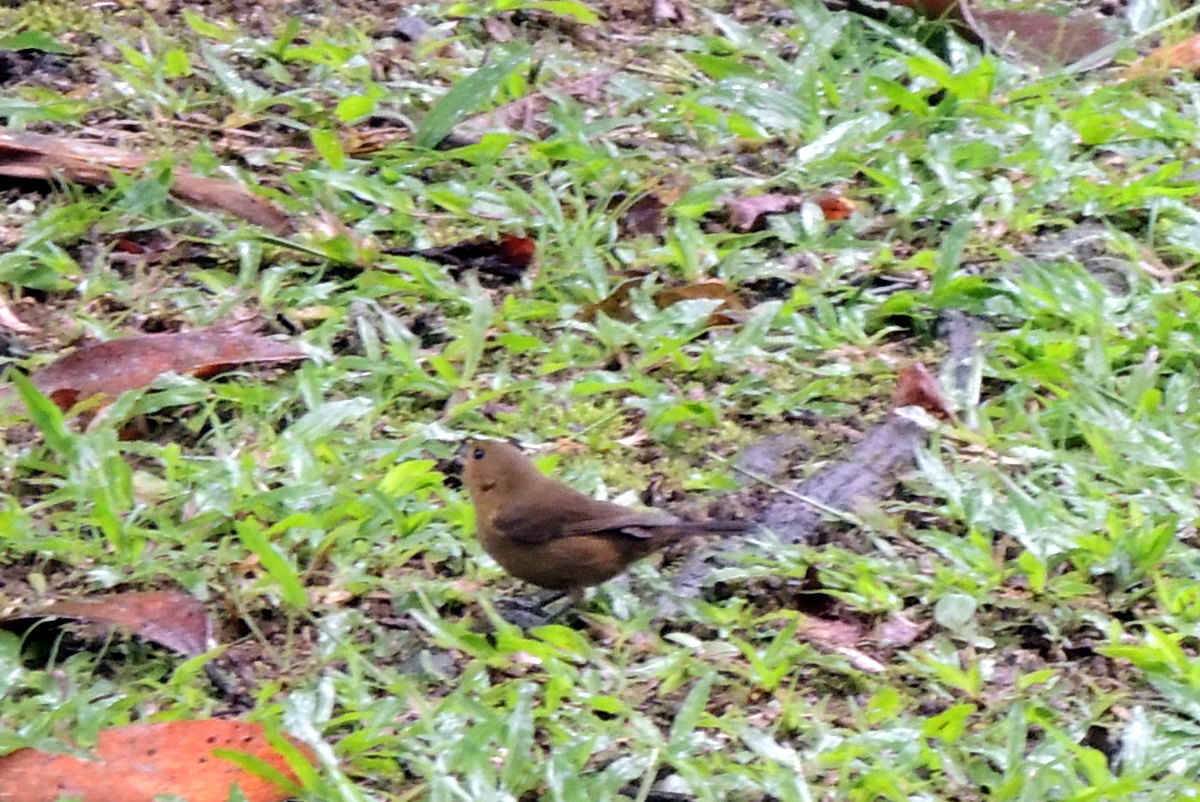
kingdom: Animalia
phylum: Chordata
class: Aves
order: Passeriformes
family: Thraupidae
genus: Sporophila
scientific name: Sporophila corvina
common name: Variable seedeater
